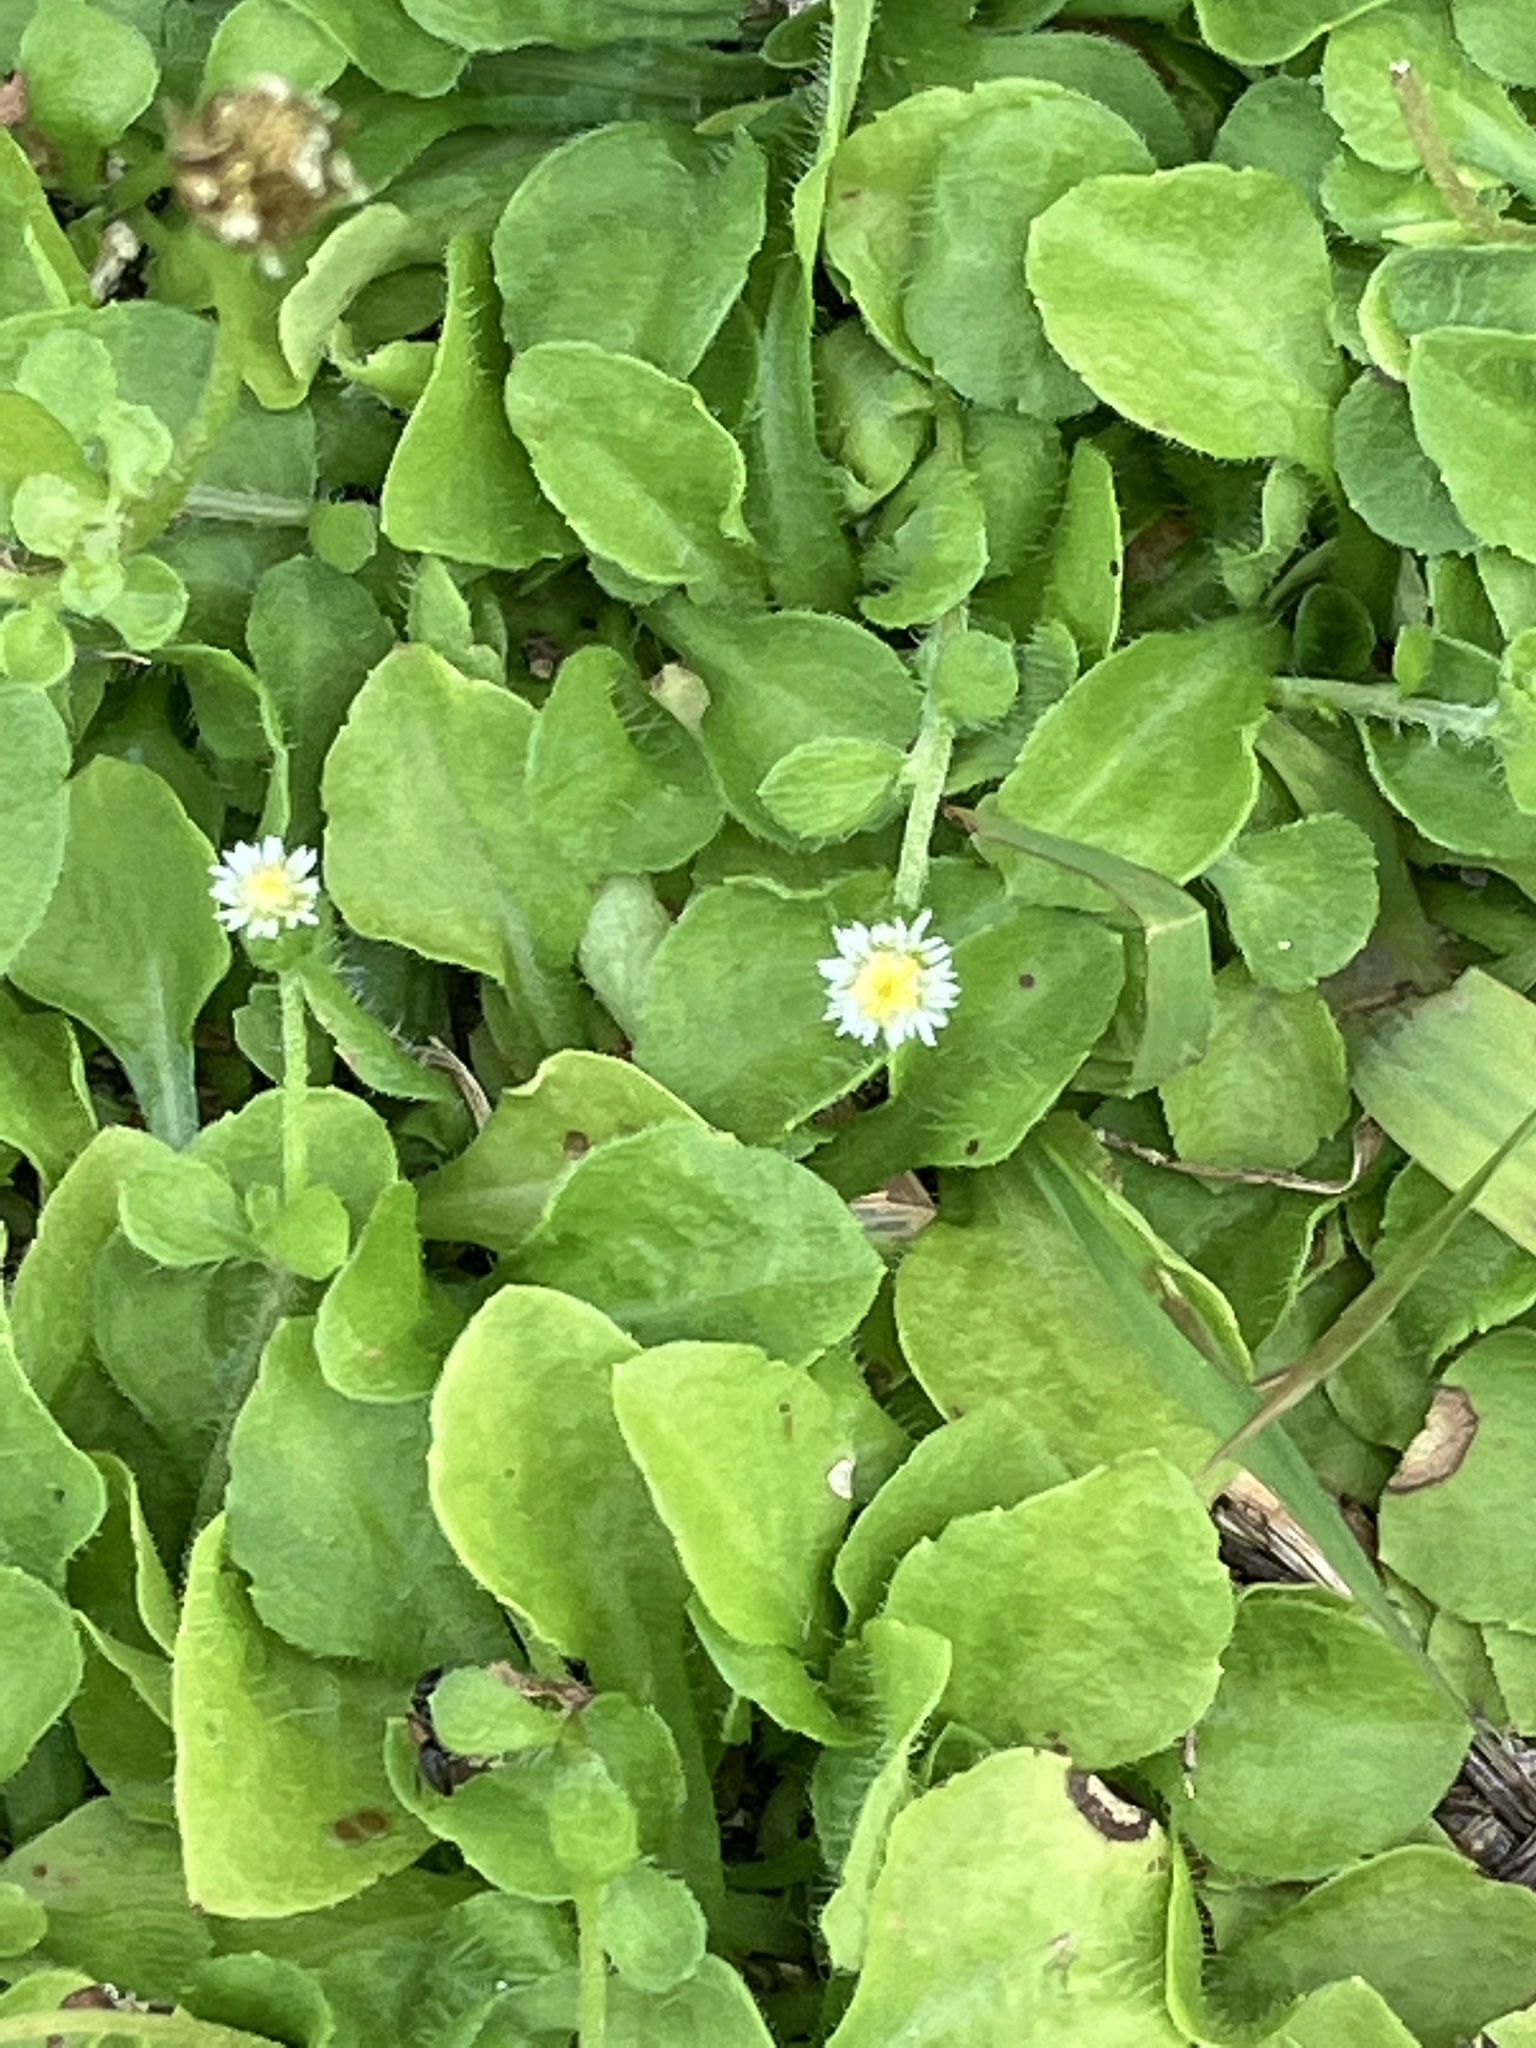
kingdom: Plantae
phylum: Tracheophyta
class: Magnoliopsida
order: Asterales
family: Asteraceae
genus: Erigeron
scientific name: Erigeron bellioides
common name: Bellorita
